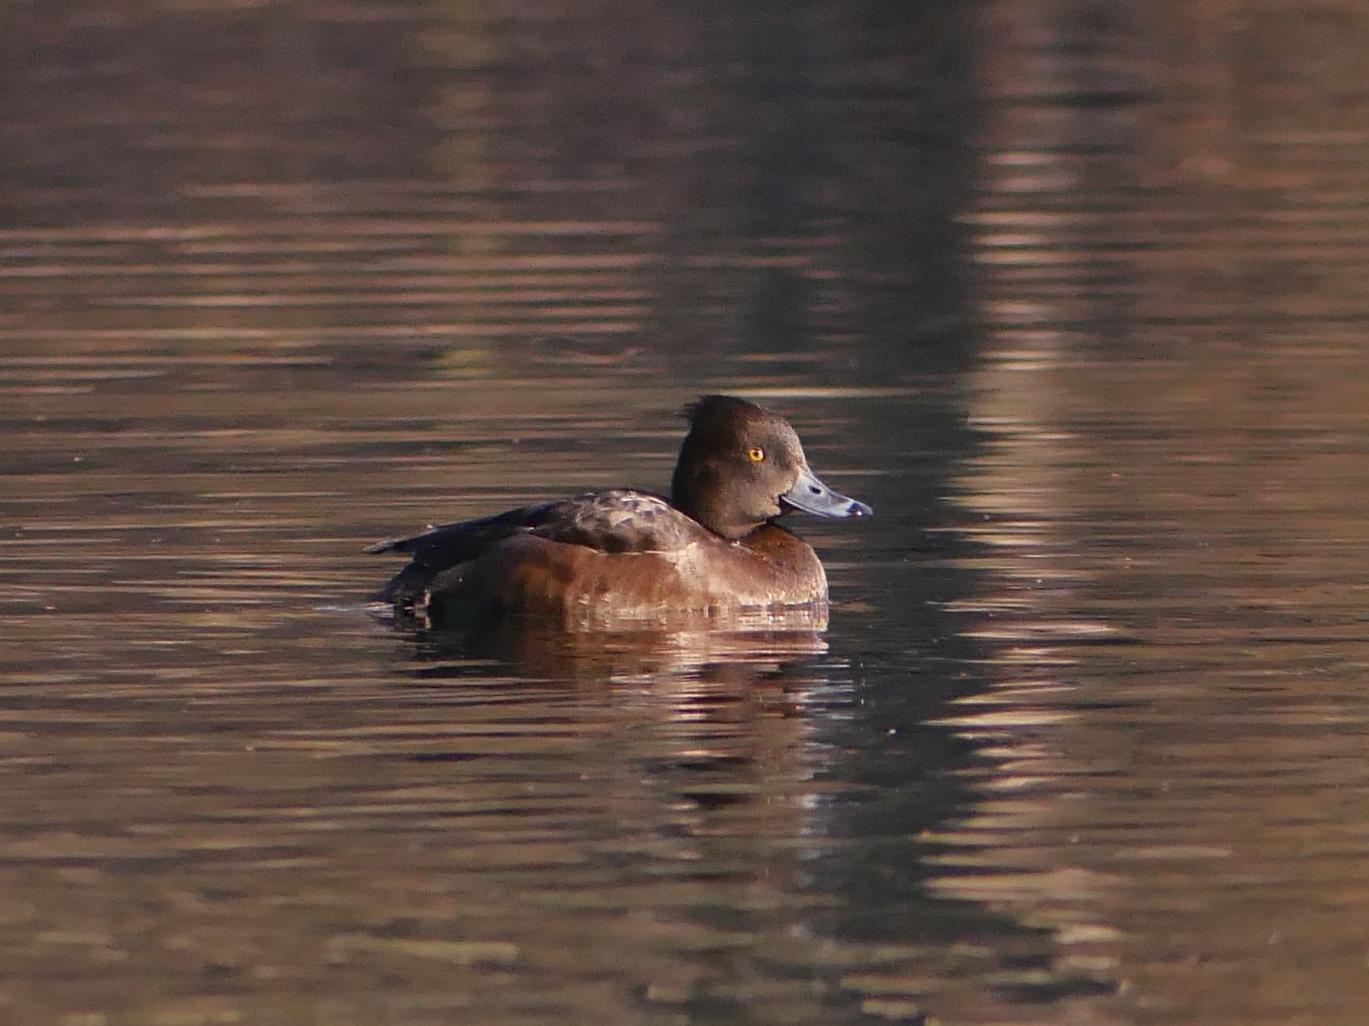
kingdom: Animalia
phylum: Chordata
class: Aves
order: Anseriformes
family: Anatidae
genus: Aythya
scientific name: Aythya fuligula
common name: Tufted duck
